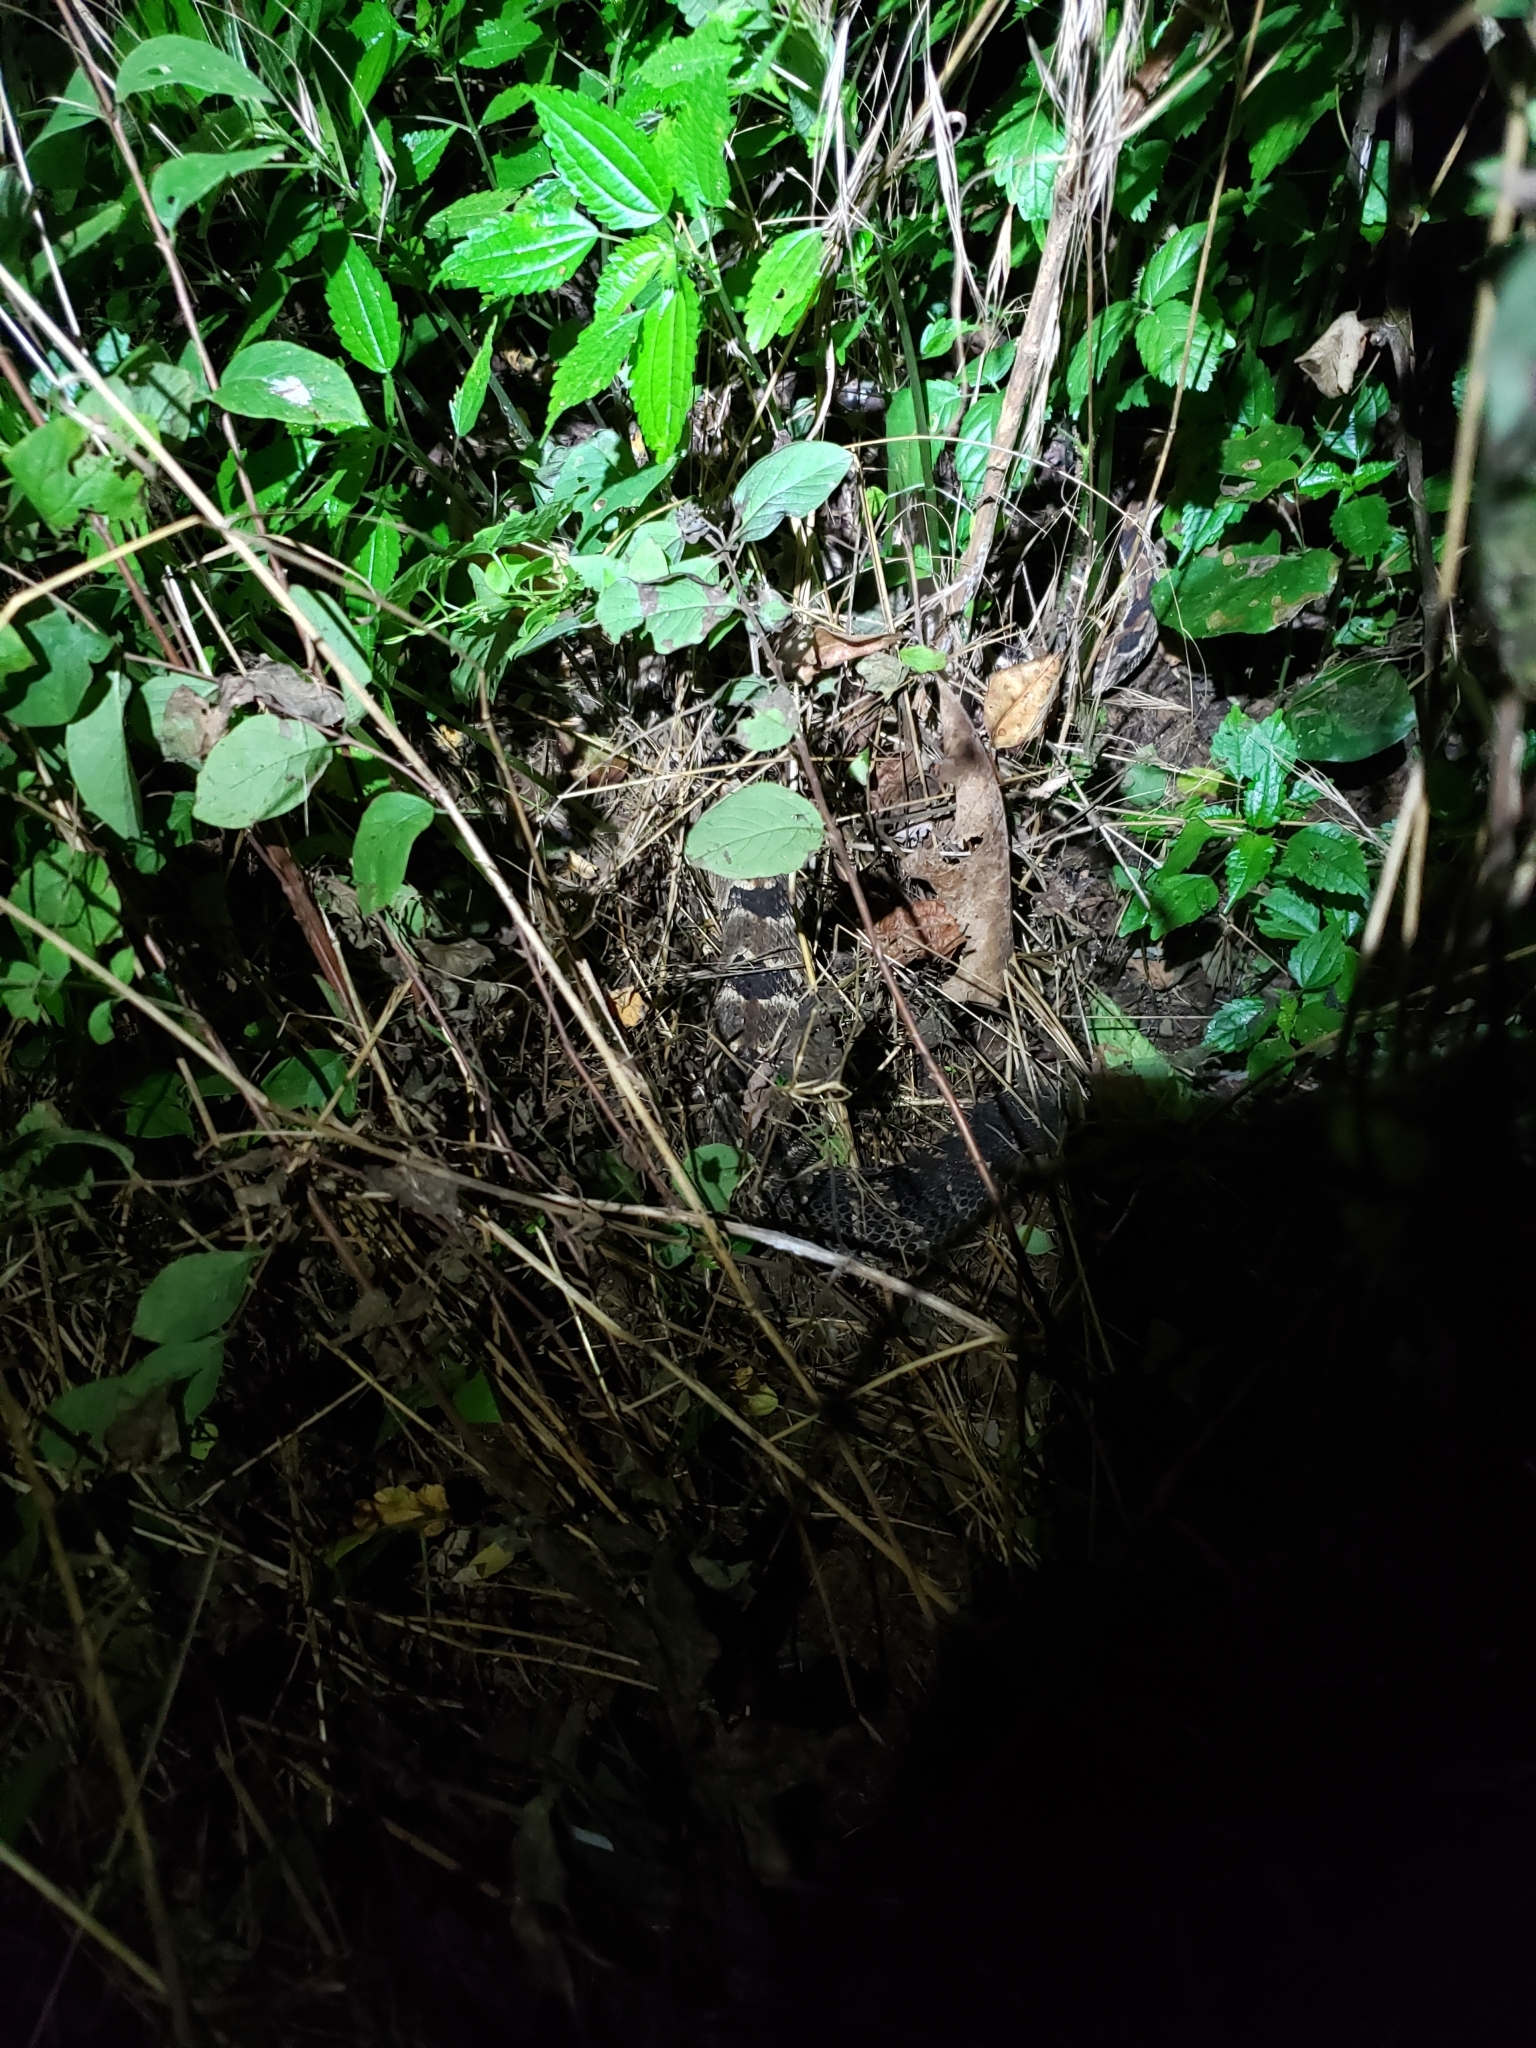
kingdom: Animalia
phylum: Chordata
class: Squamata
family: Viperidae
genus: Crotalus
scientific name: Crotalus horridus
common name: Timber rattlesnake
